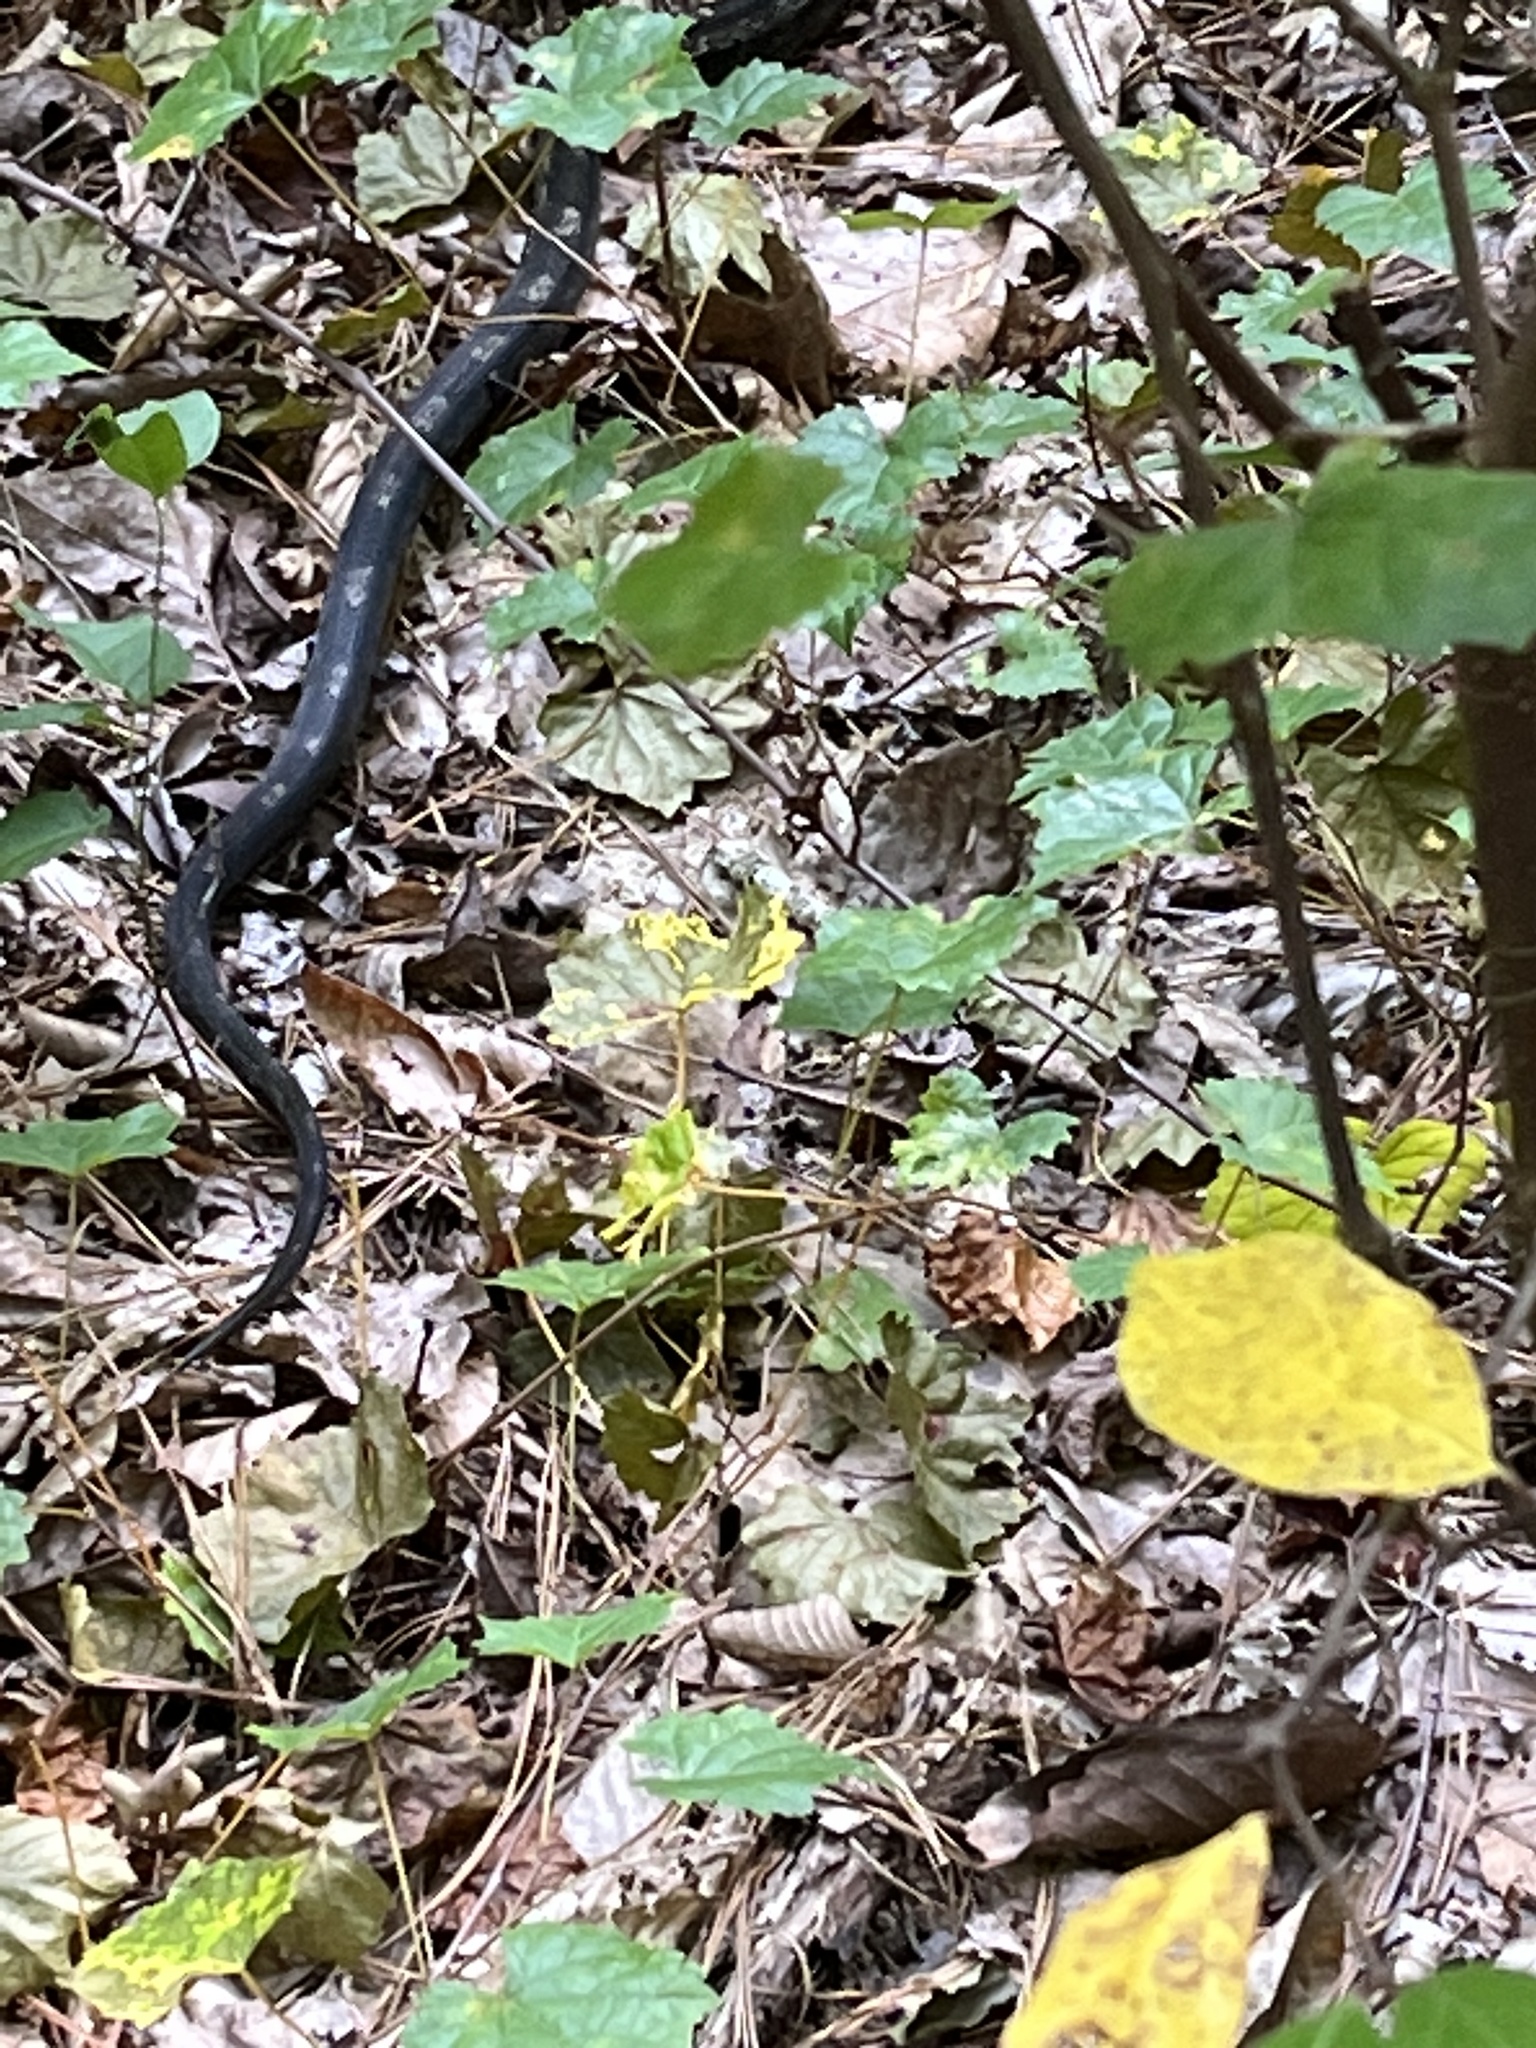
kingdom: Animalia
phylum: Chordata
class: Squamata
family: Colubridae
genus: Pantherophis
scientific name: Pantherophis spiloides
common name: Gray rat snake
